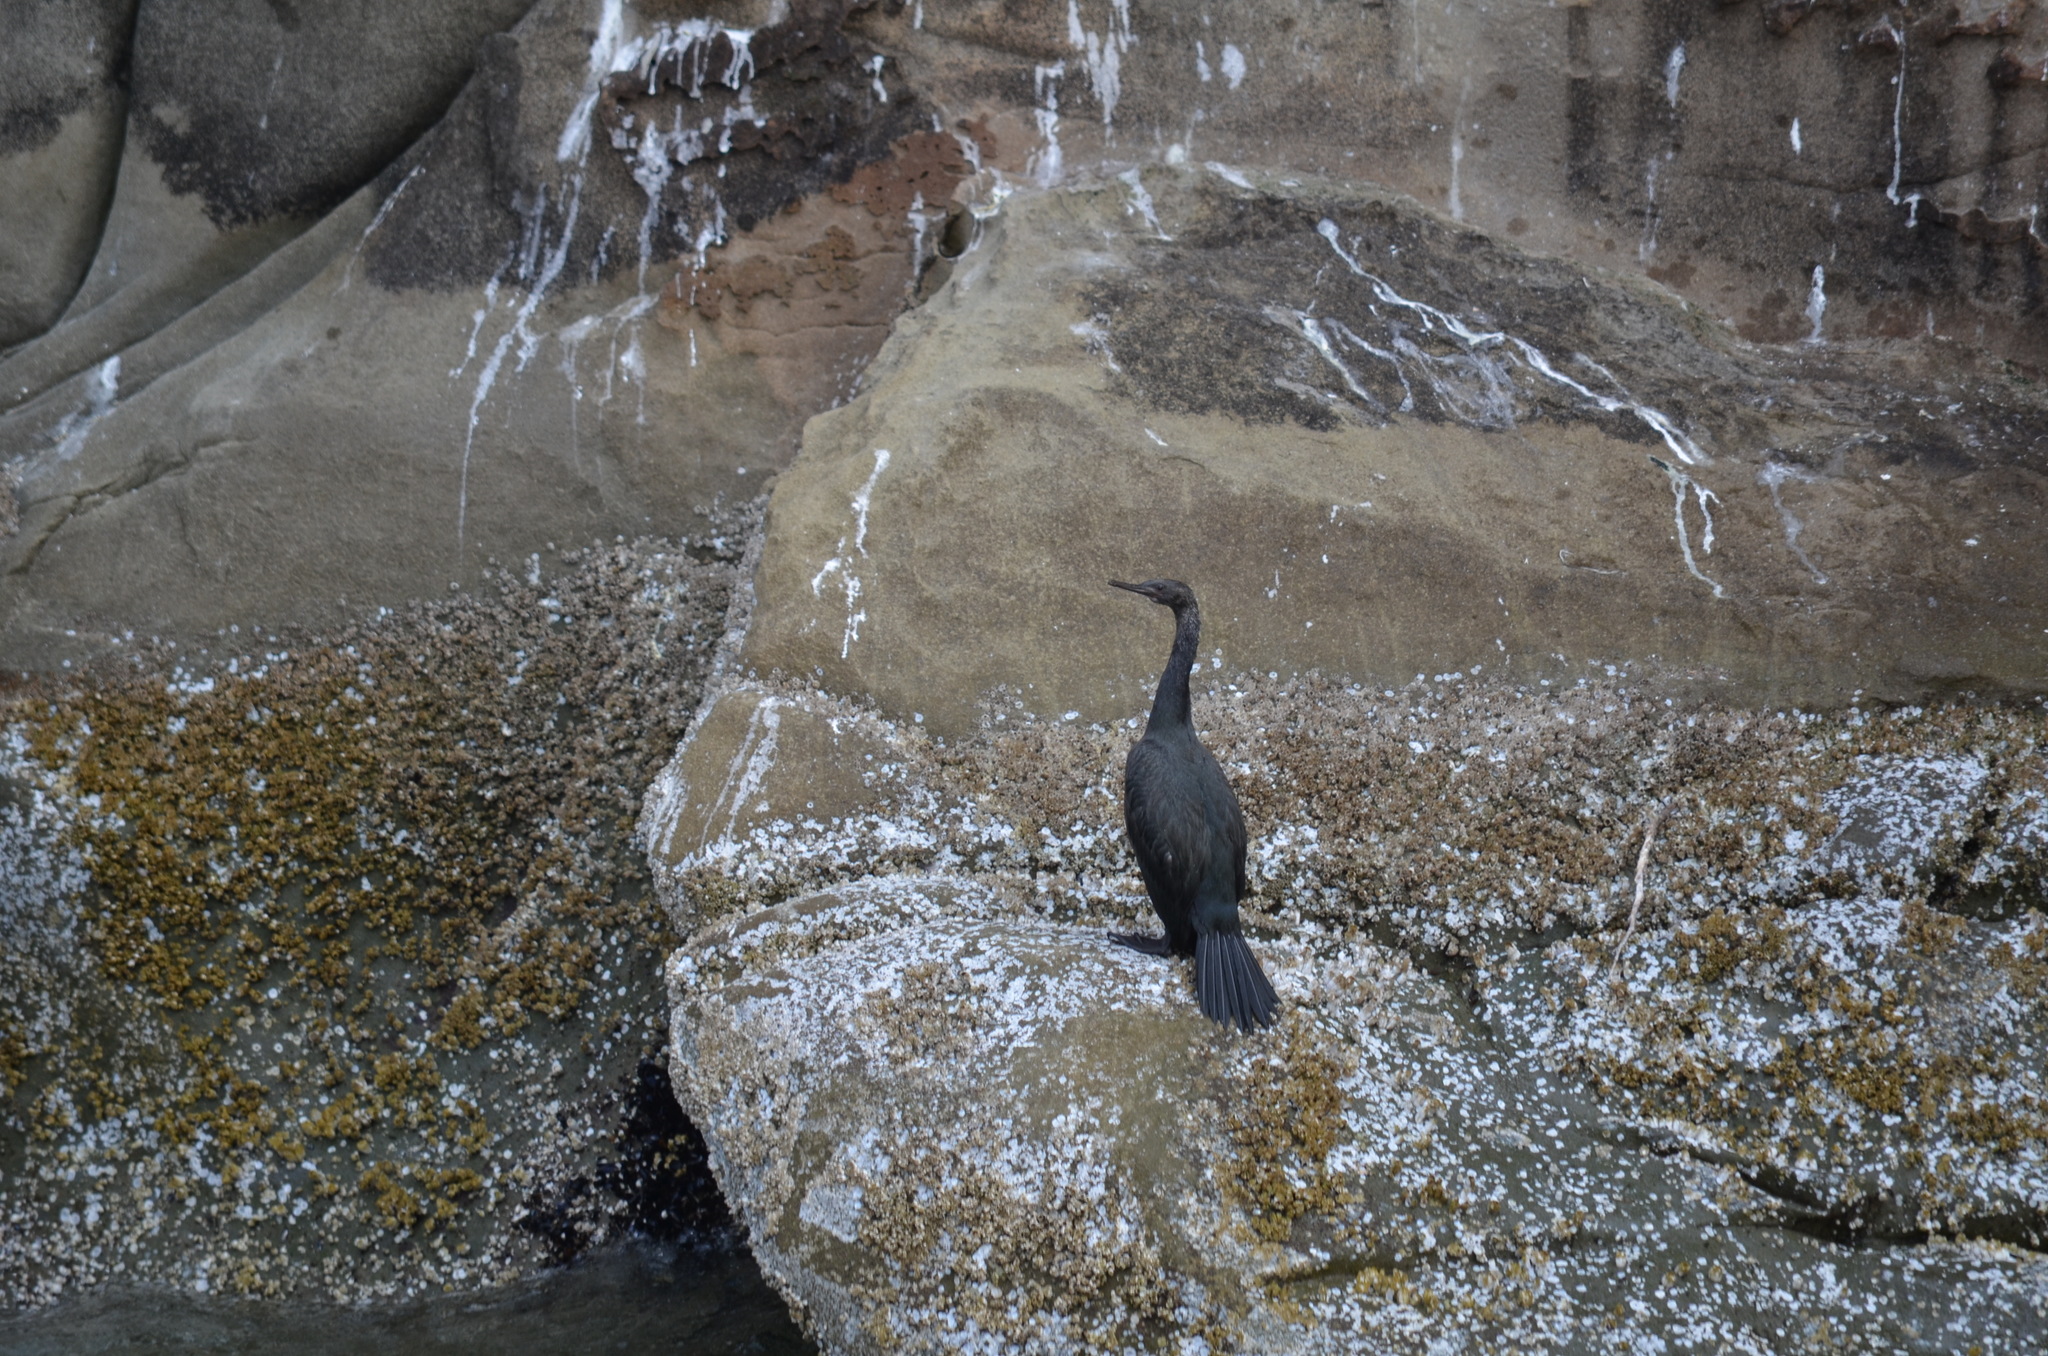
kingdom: Animalia
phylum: Chordata
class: Aves
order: Suliformes
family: Phalacrocoracidae
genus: Phalacrocorax
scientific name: Phalacrocorax pelagicus
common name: Pelagic cormorant
